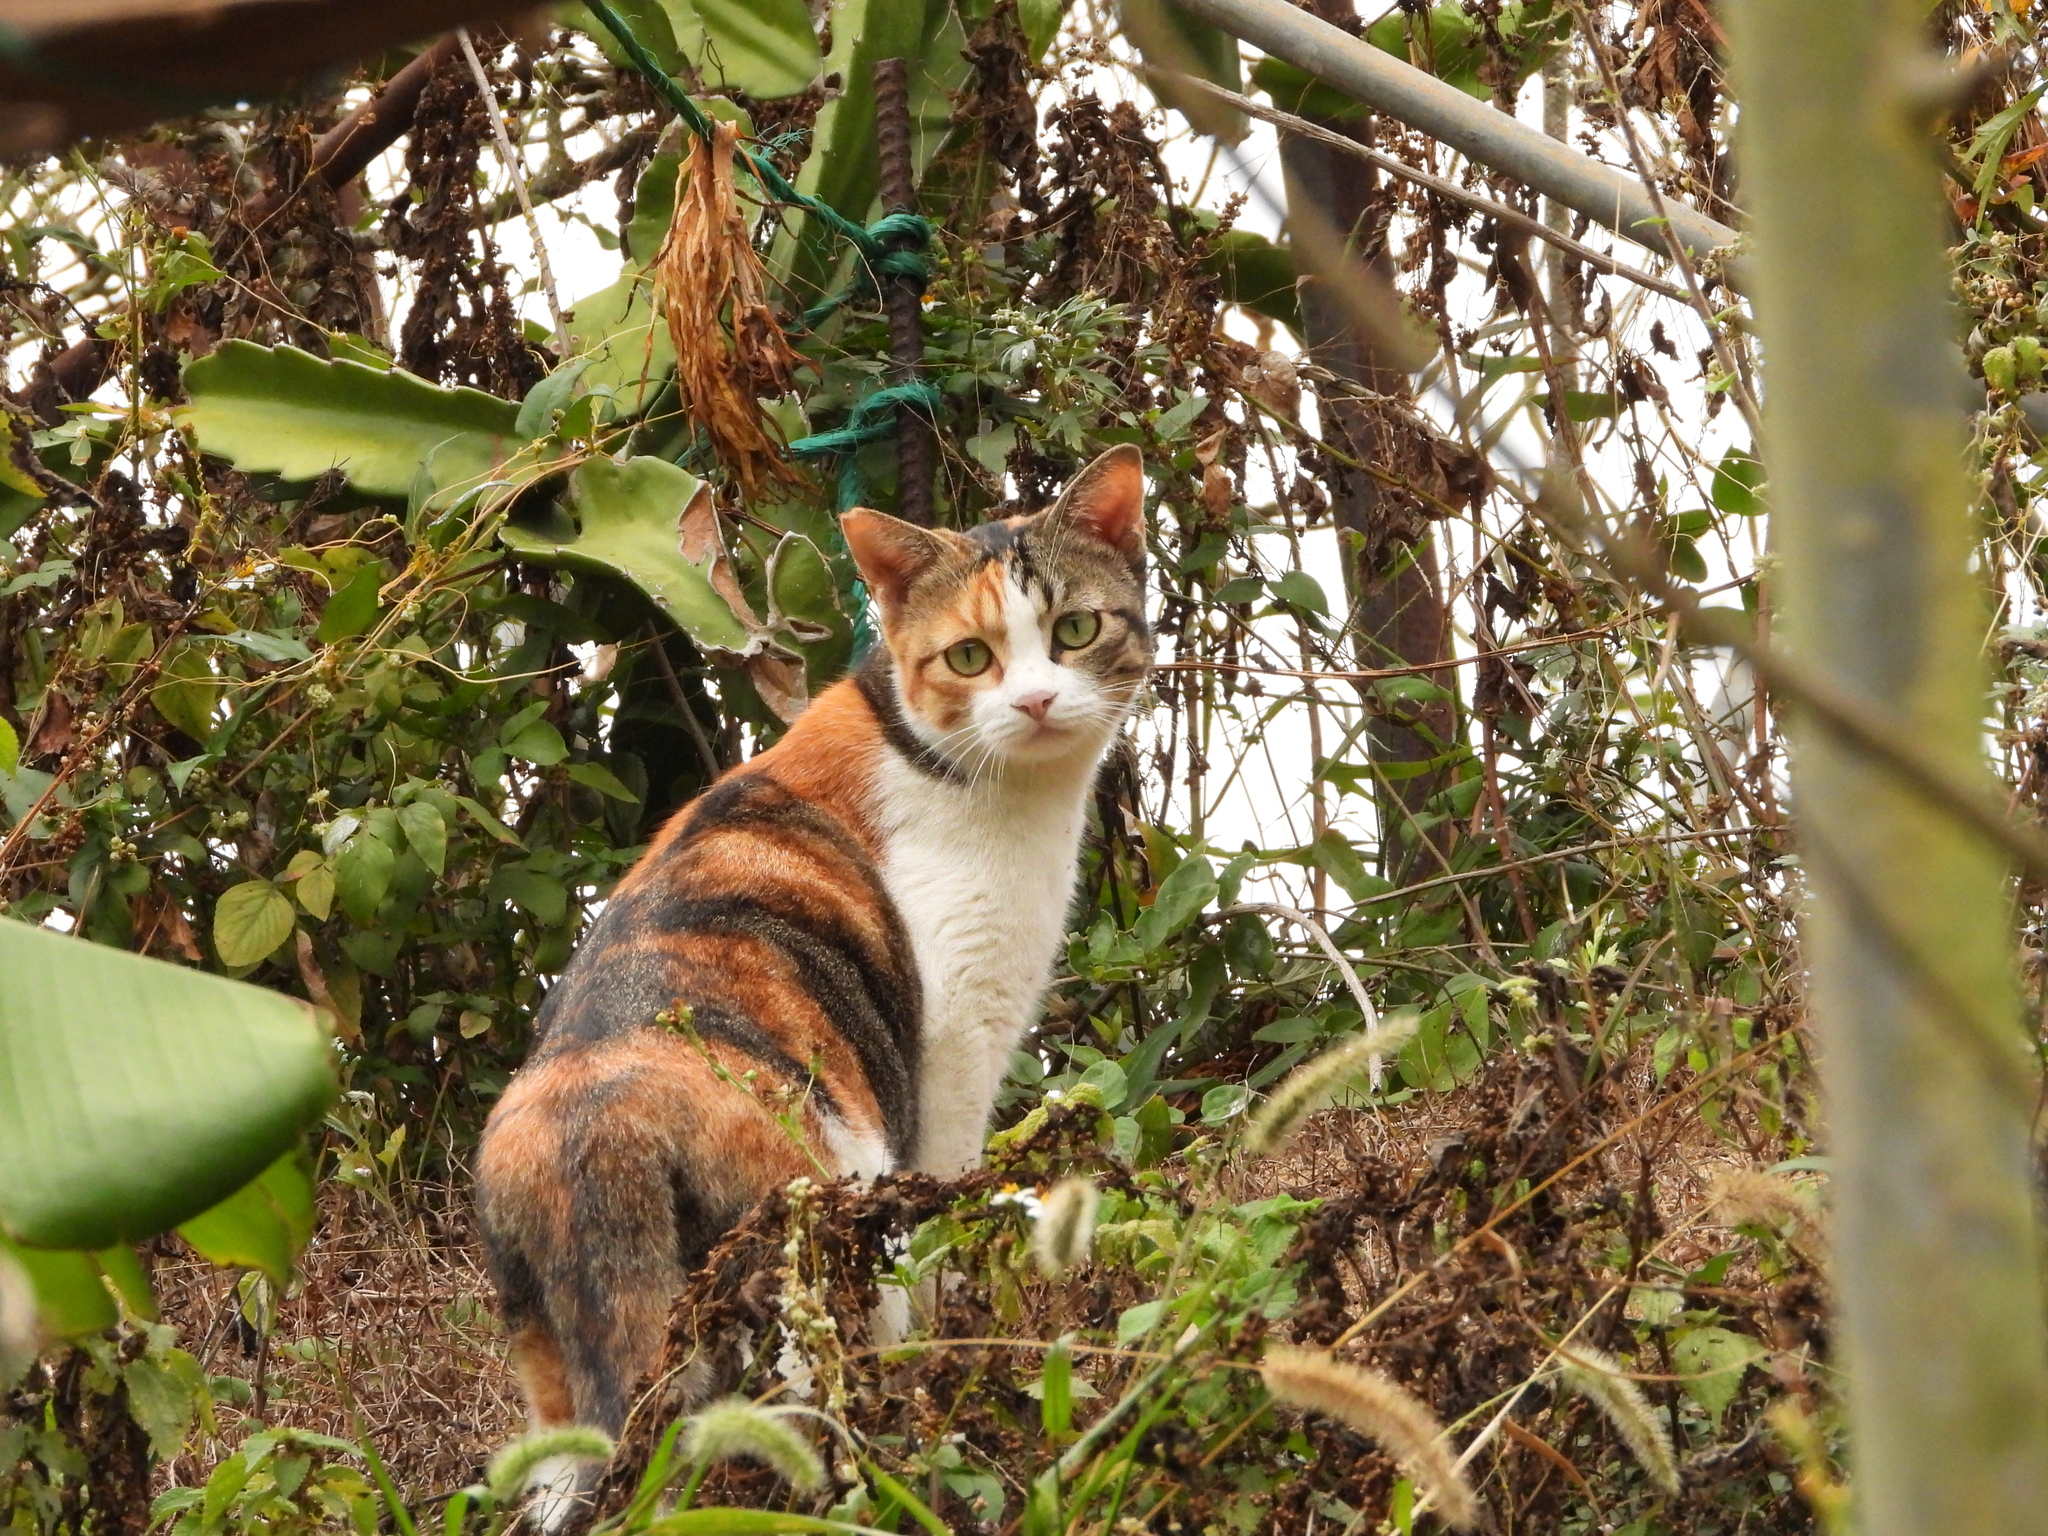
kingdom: Animalia
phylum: Chordata
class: Mammalia
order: Carnivora
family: Felidae
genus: Felis
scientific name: Felis catus
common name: Domestic cat
